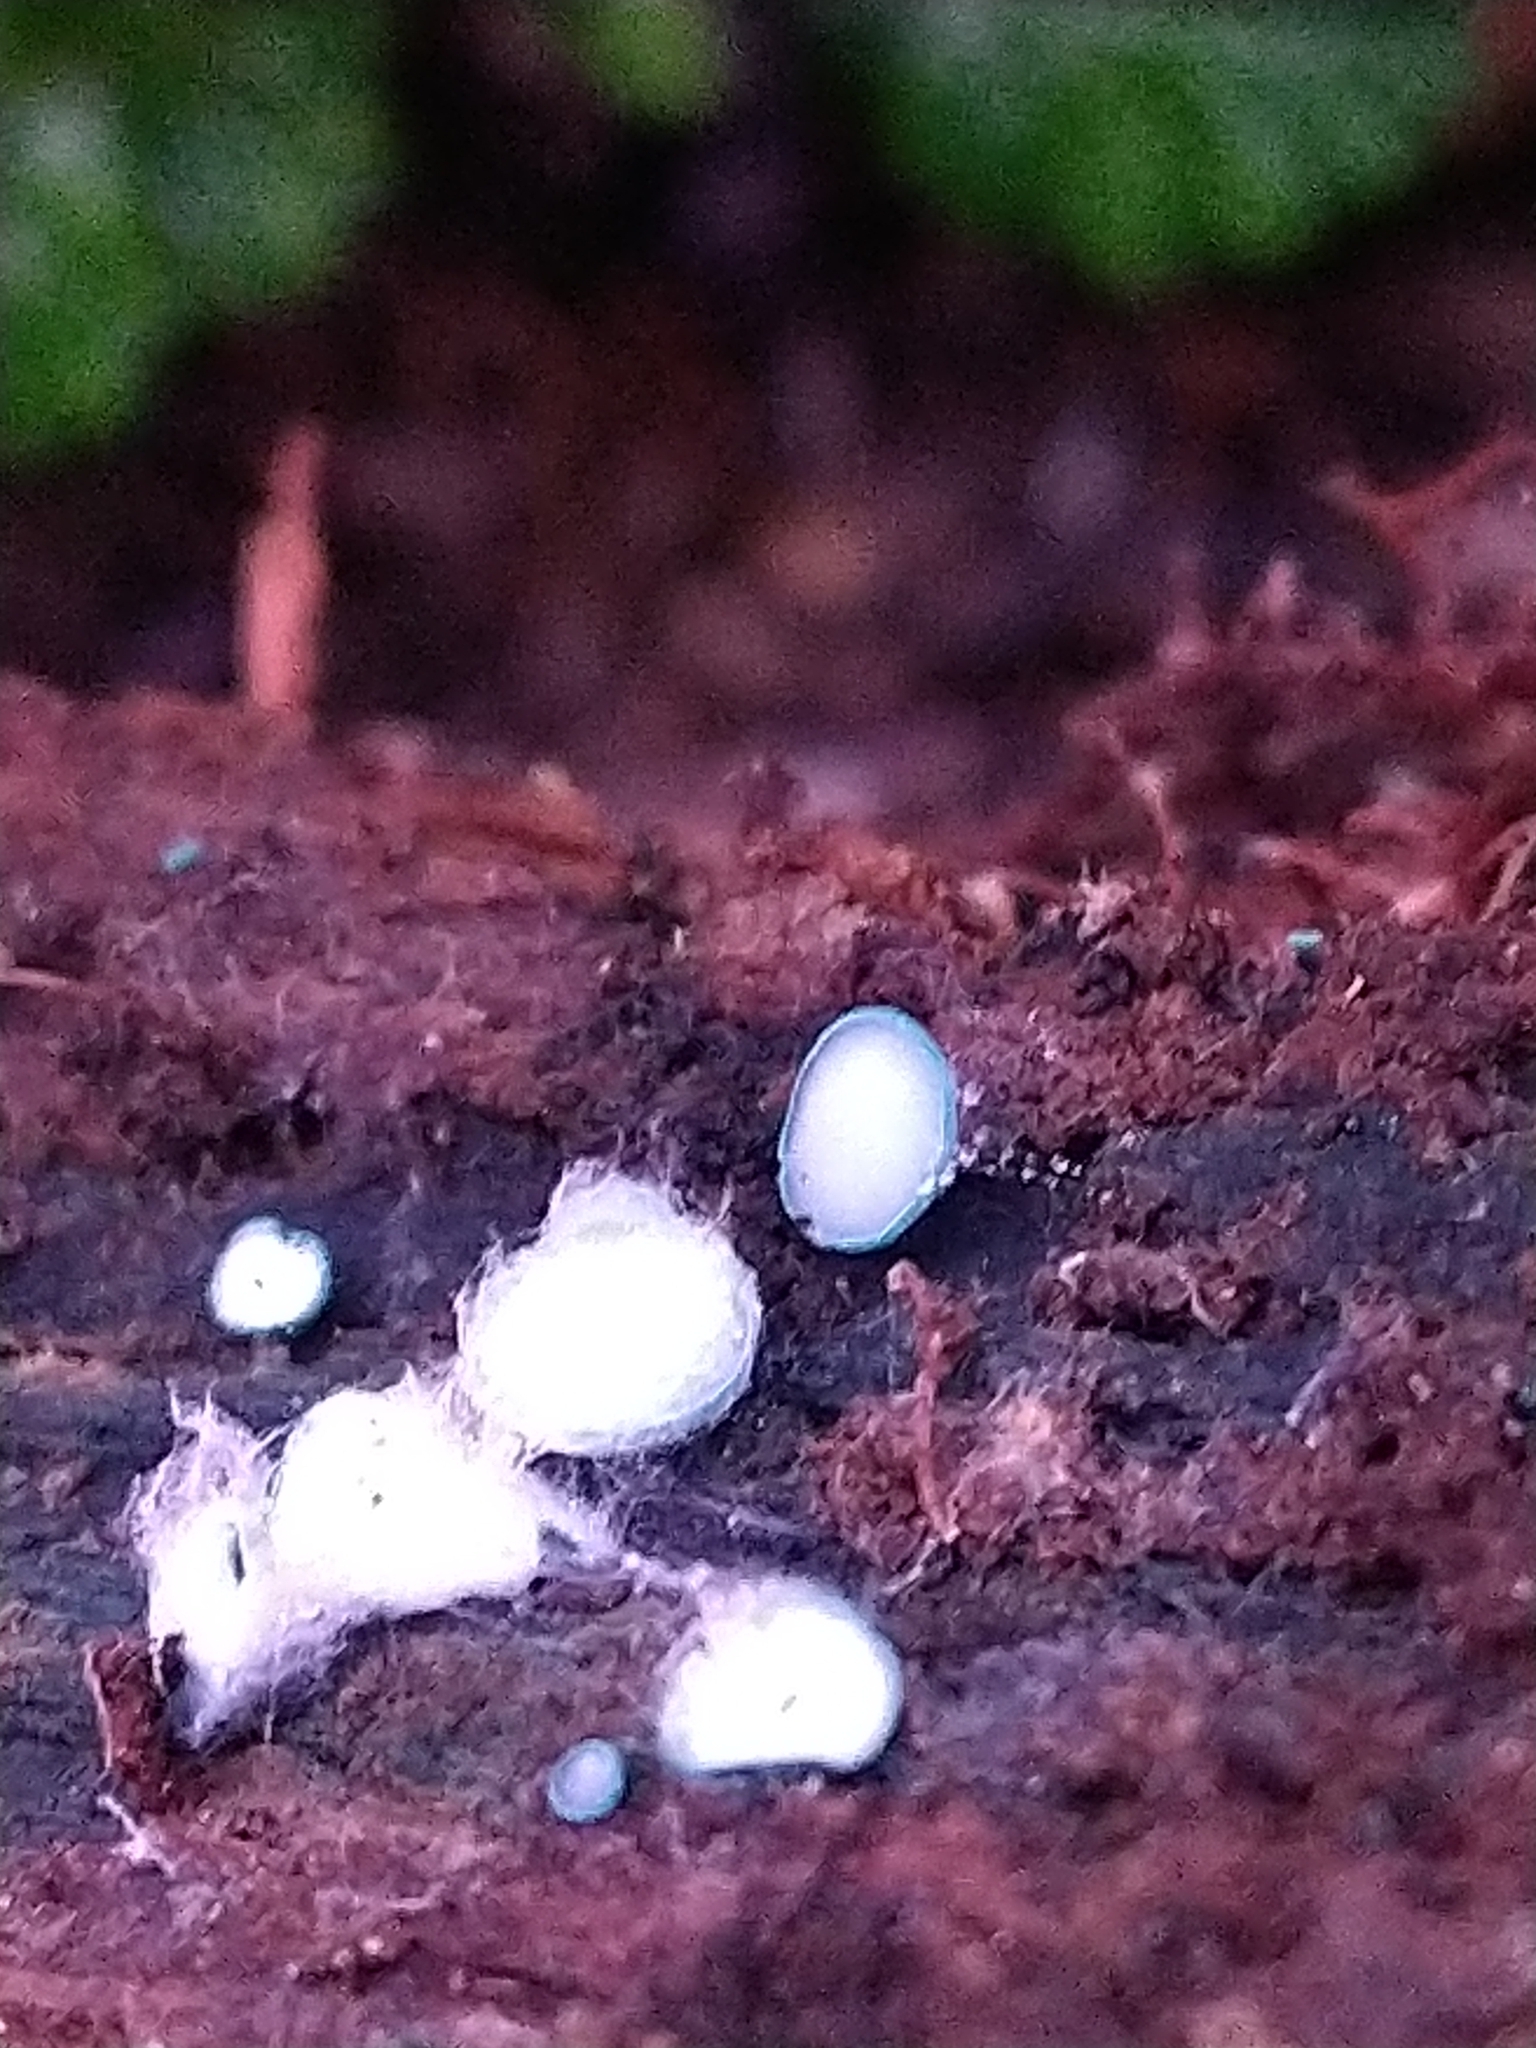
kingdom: Fungi
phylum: Ascomycota
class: Leotiomycetes
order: Helotiales
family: Chlorociboriaceae
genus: Chlorociboria
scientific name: Chlorociboria aeruginosa
